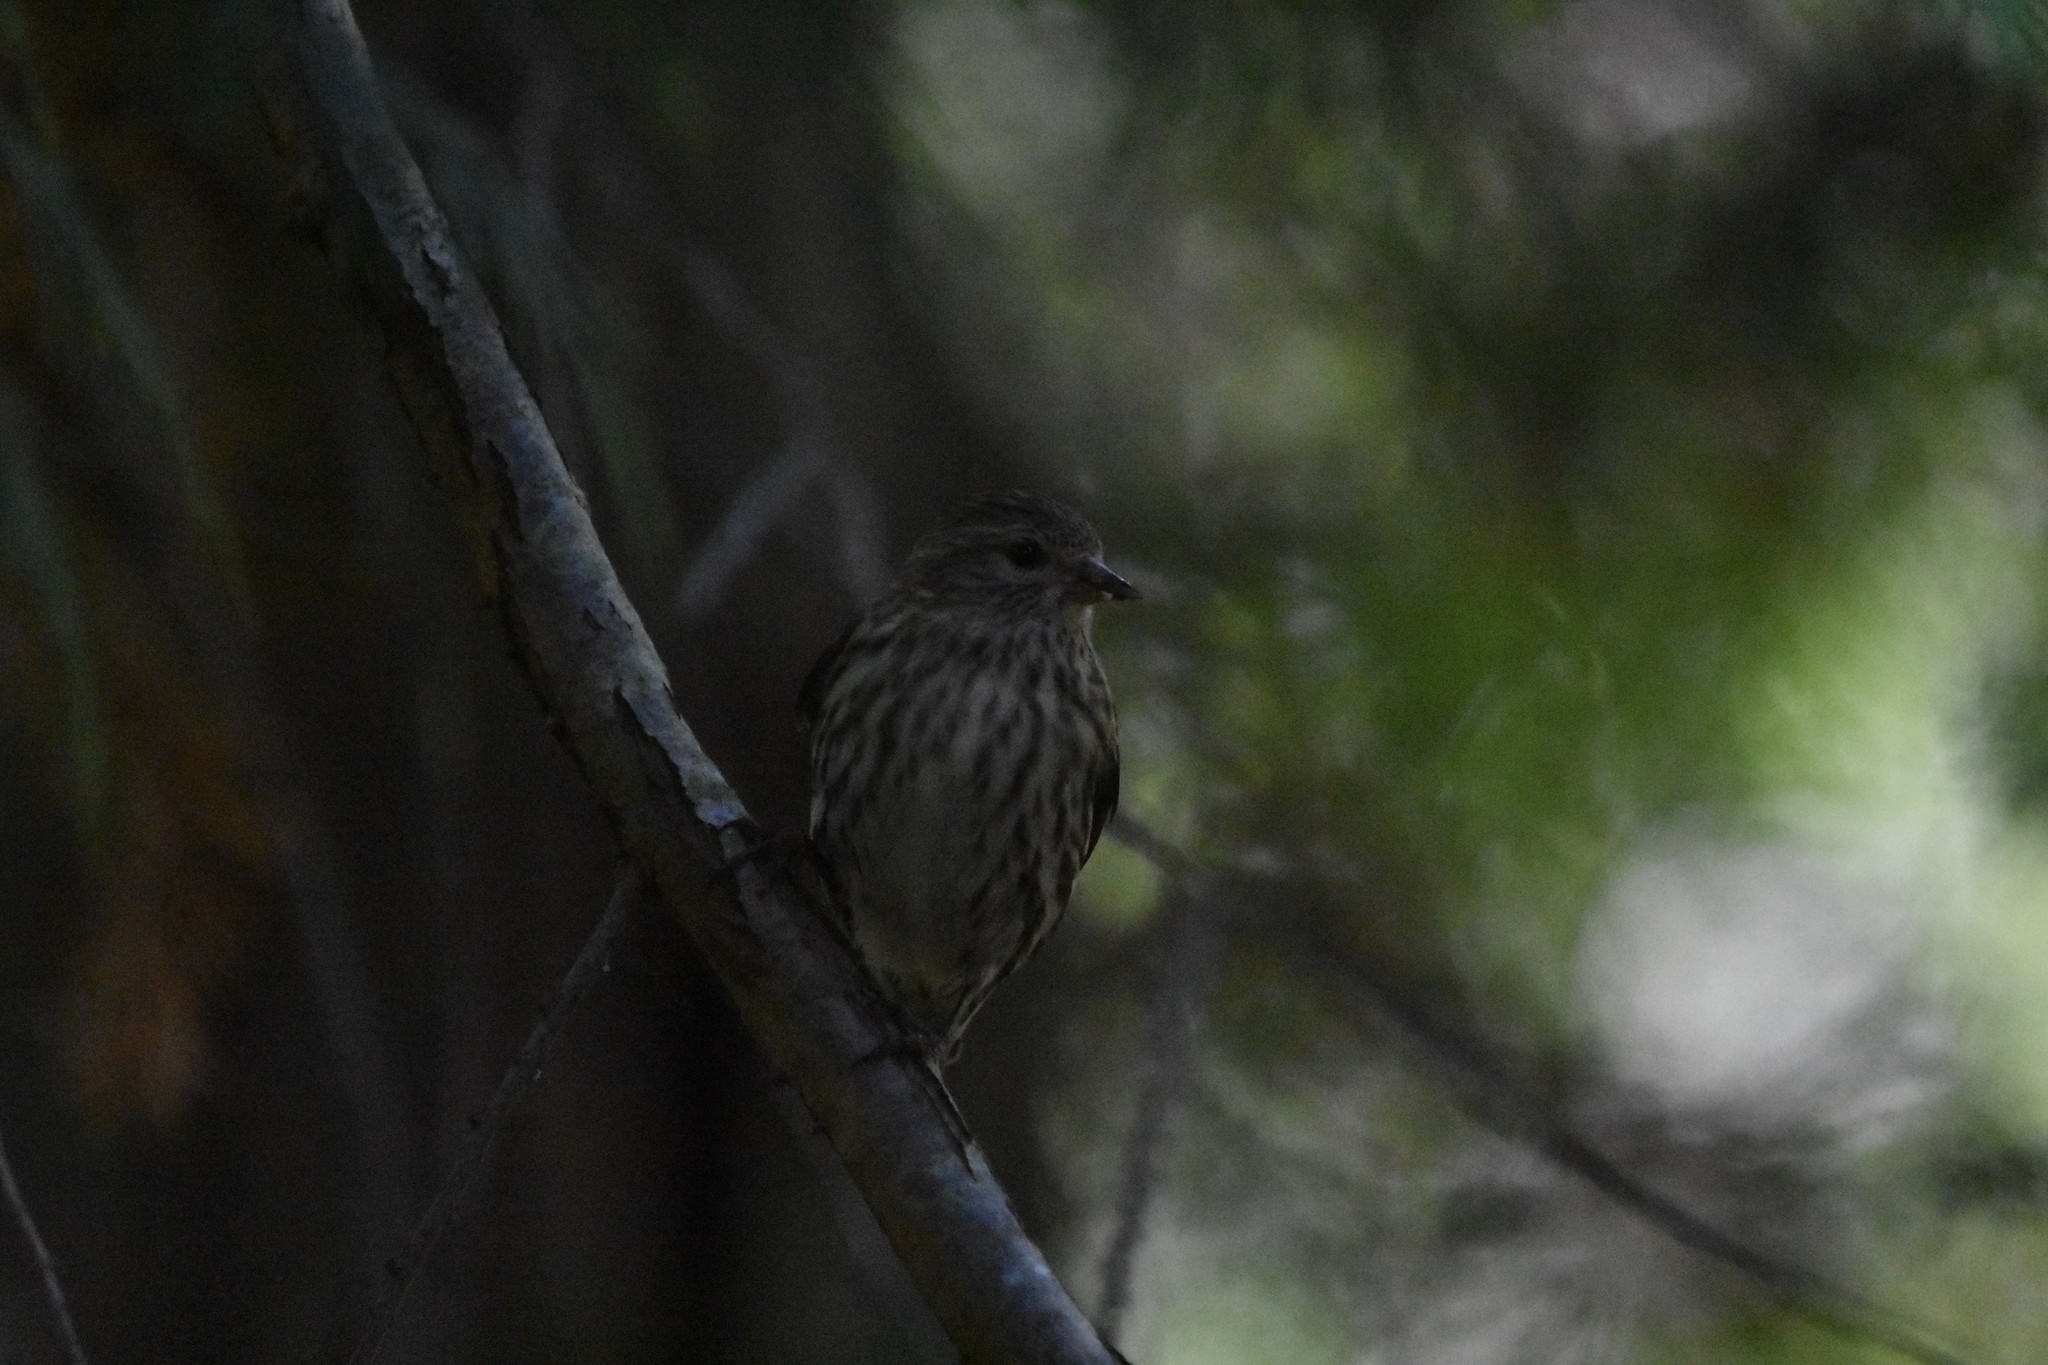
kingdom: Animalia
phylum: Chordata
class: Aves
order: Passeriformes
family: Fringillidae
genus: Spinus
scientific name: Spinus pinus
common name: Pine siskin
